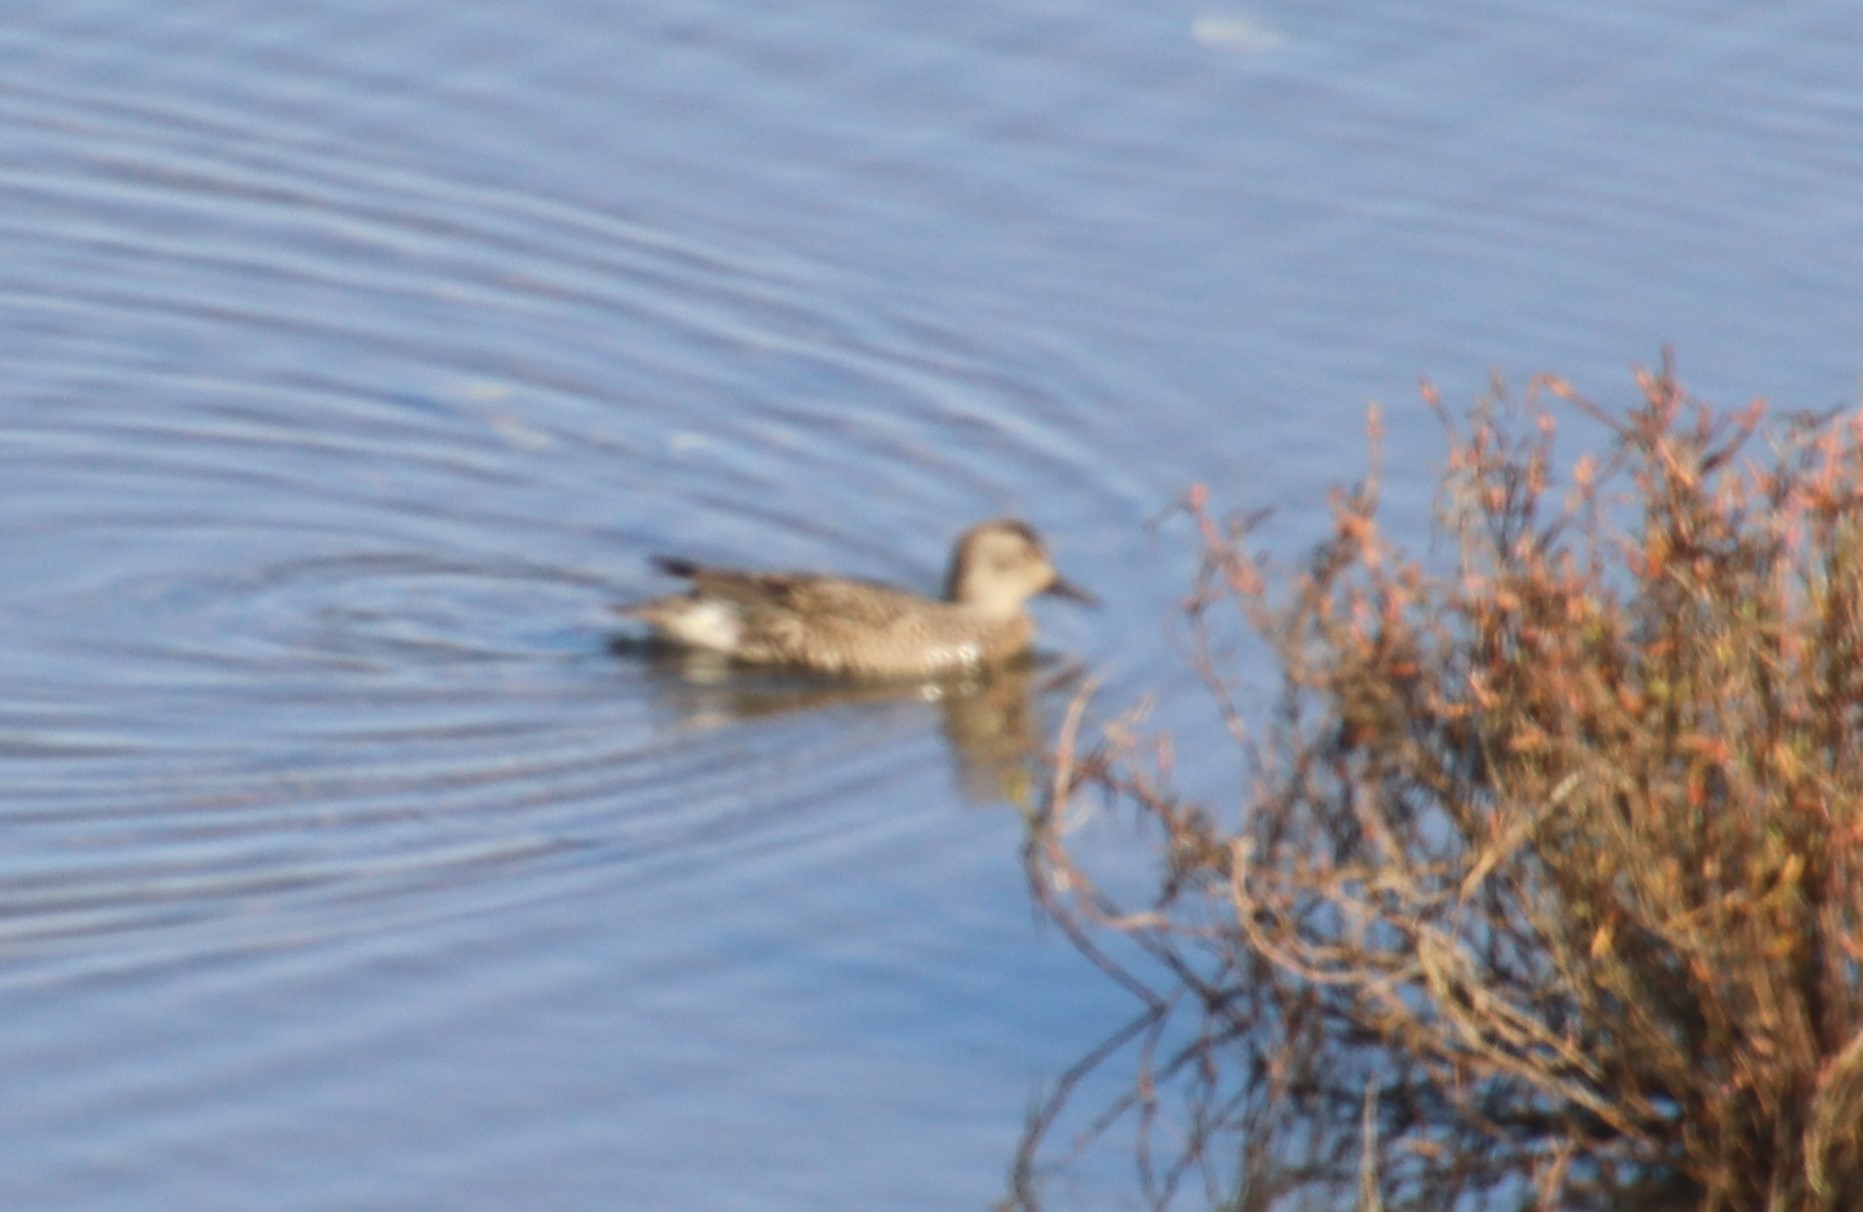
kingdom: Animalia
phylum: Chordata
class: Aves
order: Anseriformes
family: Anatidae
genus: Anas
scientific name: Anas crecca
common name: Eurasian teal
